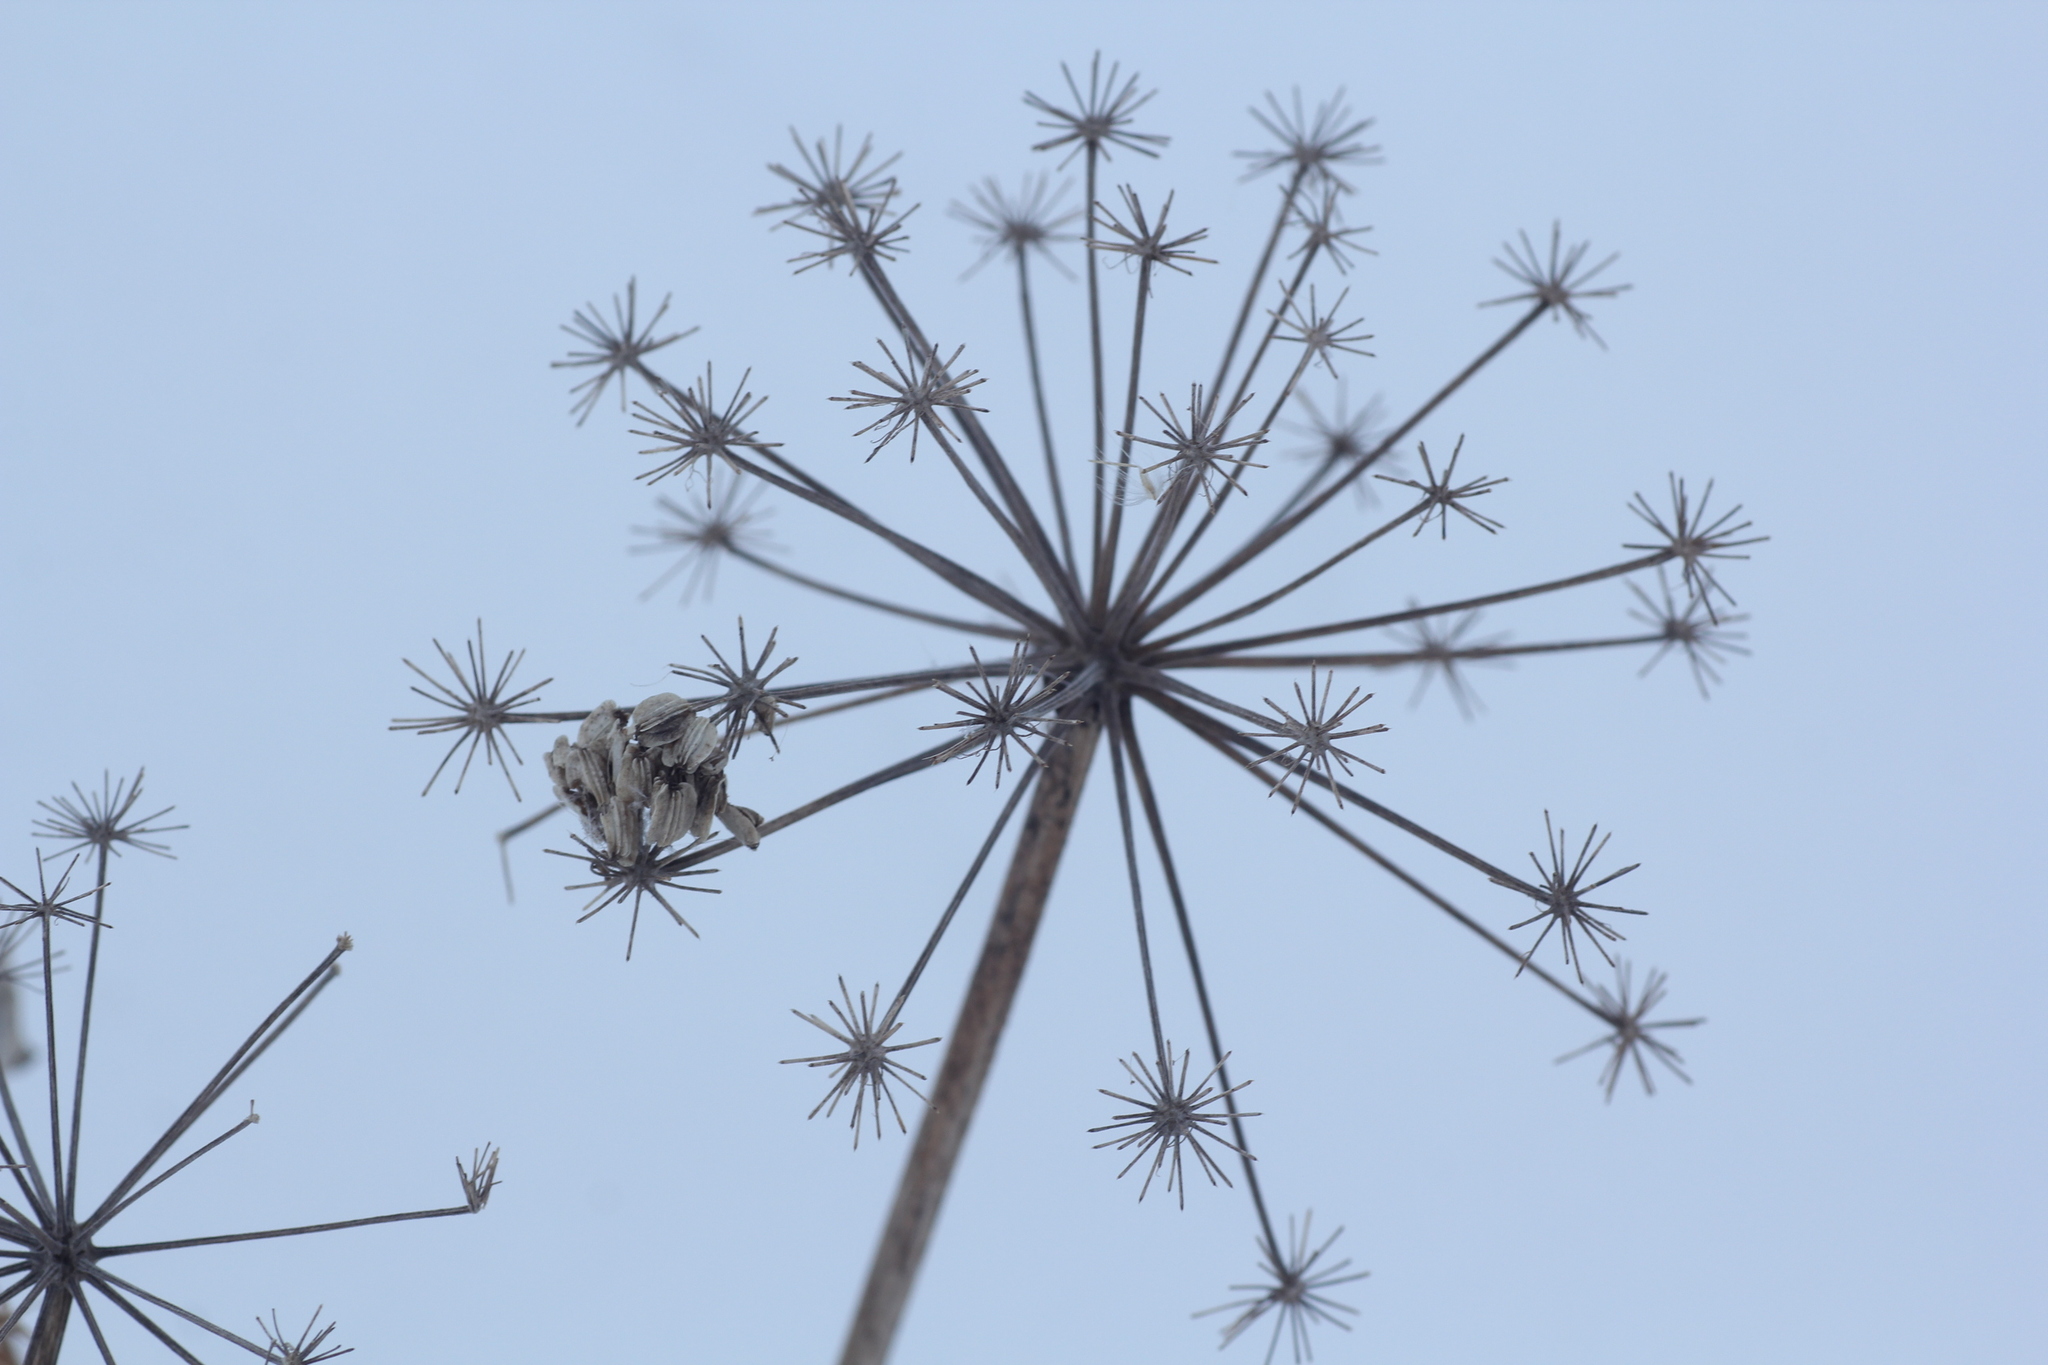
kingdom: Plantae
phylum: Tracheophyta
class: Magnoliopsida
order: Apiales
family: Apiaceae
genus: Angelica
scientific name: Angelica decurrens
